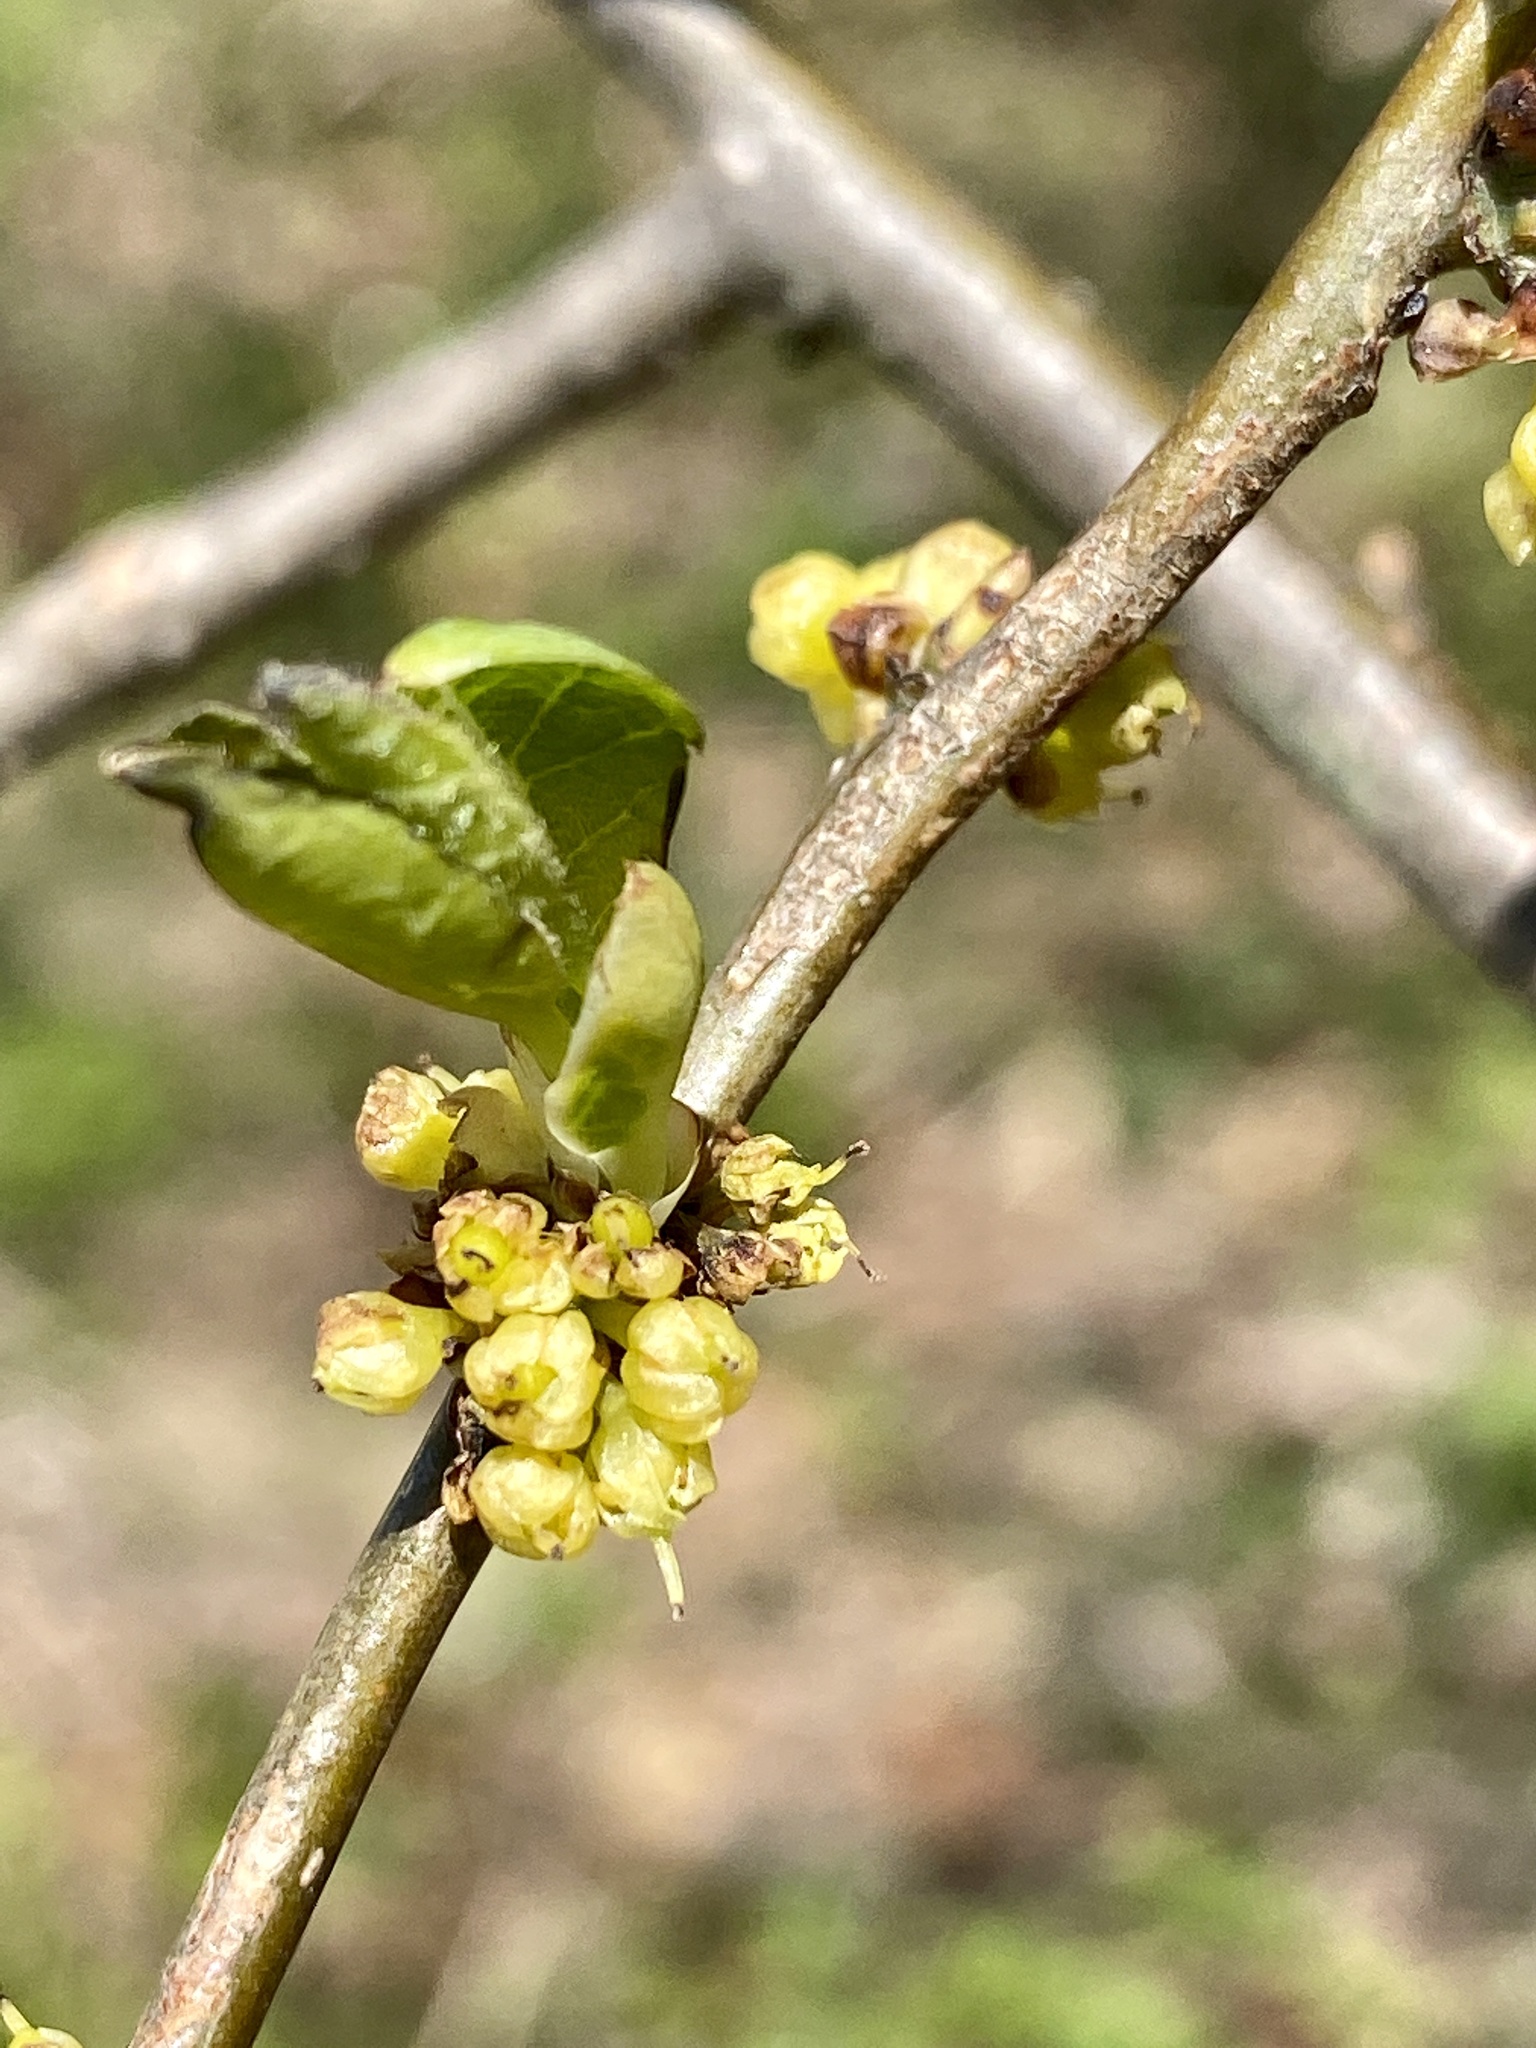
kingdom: Plantae
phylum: Tracheophyta
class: Magnoliopsida
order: Laurales
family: Lauraceae
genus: Lindera
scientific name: Lindera benzoin
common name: Spicebush
